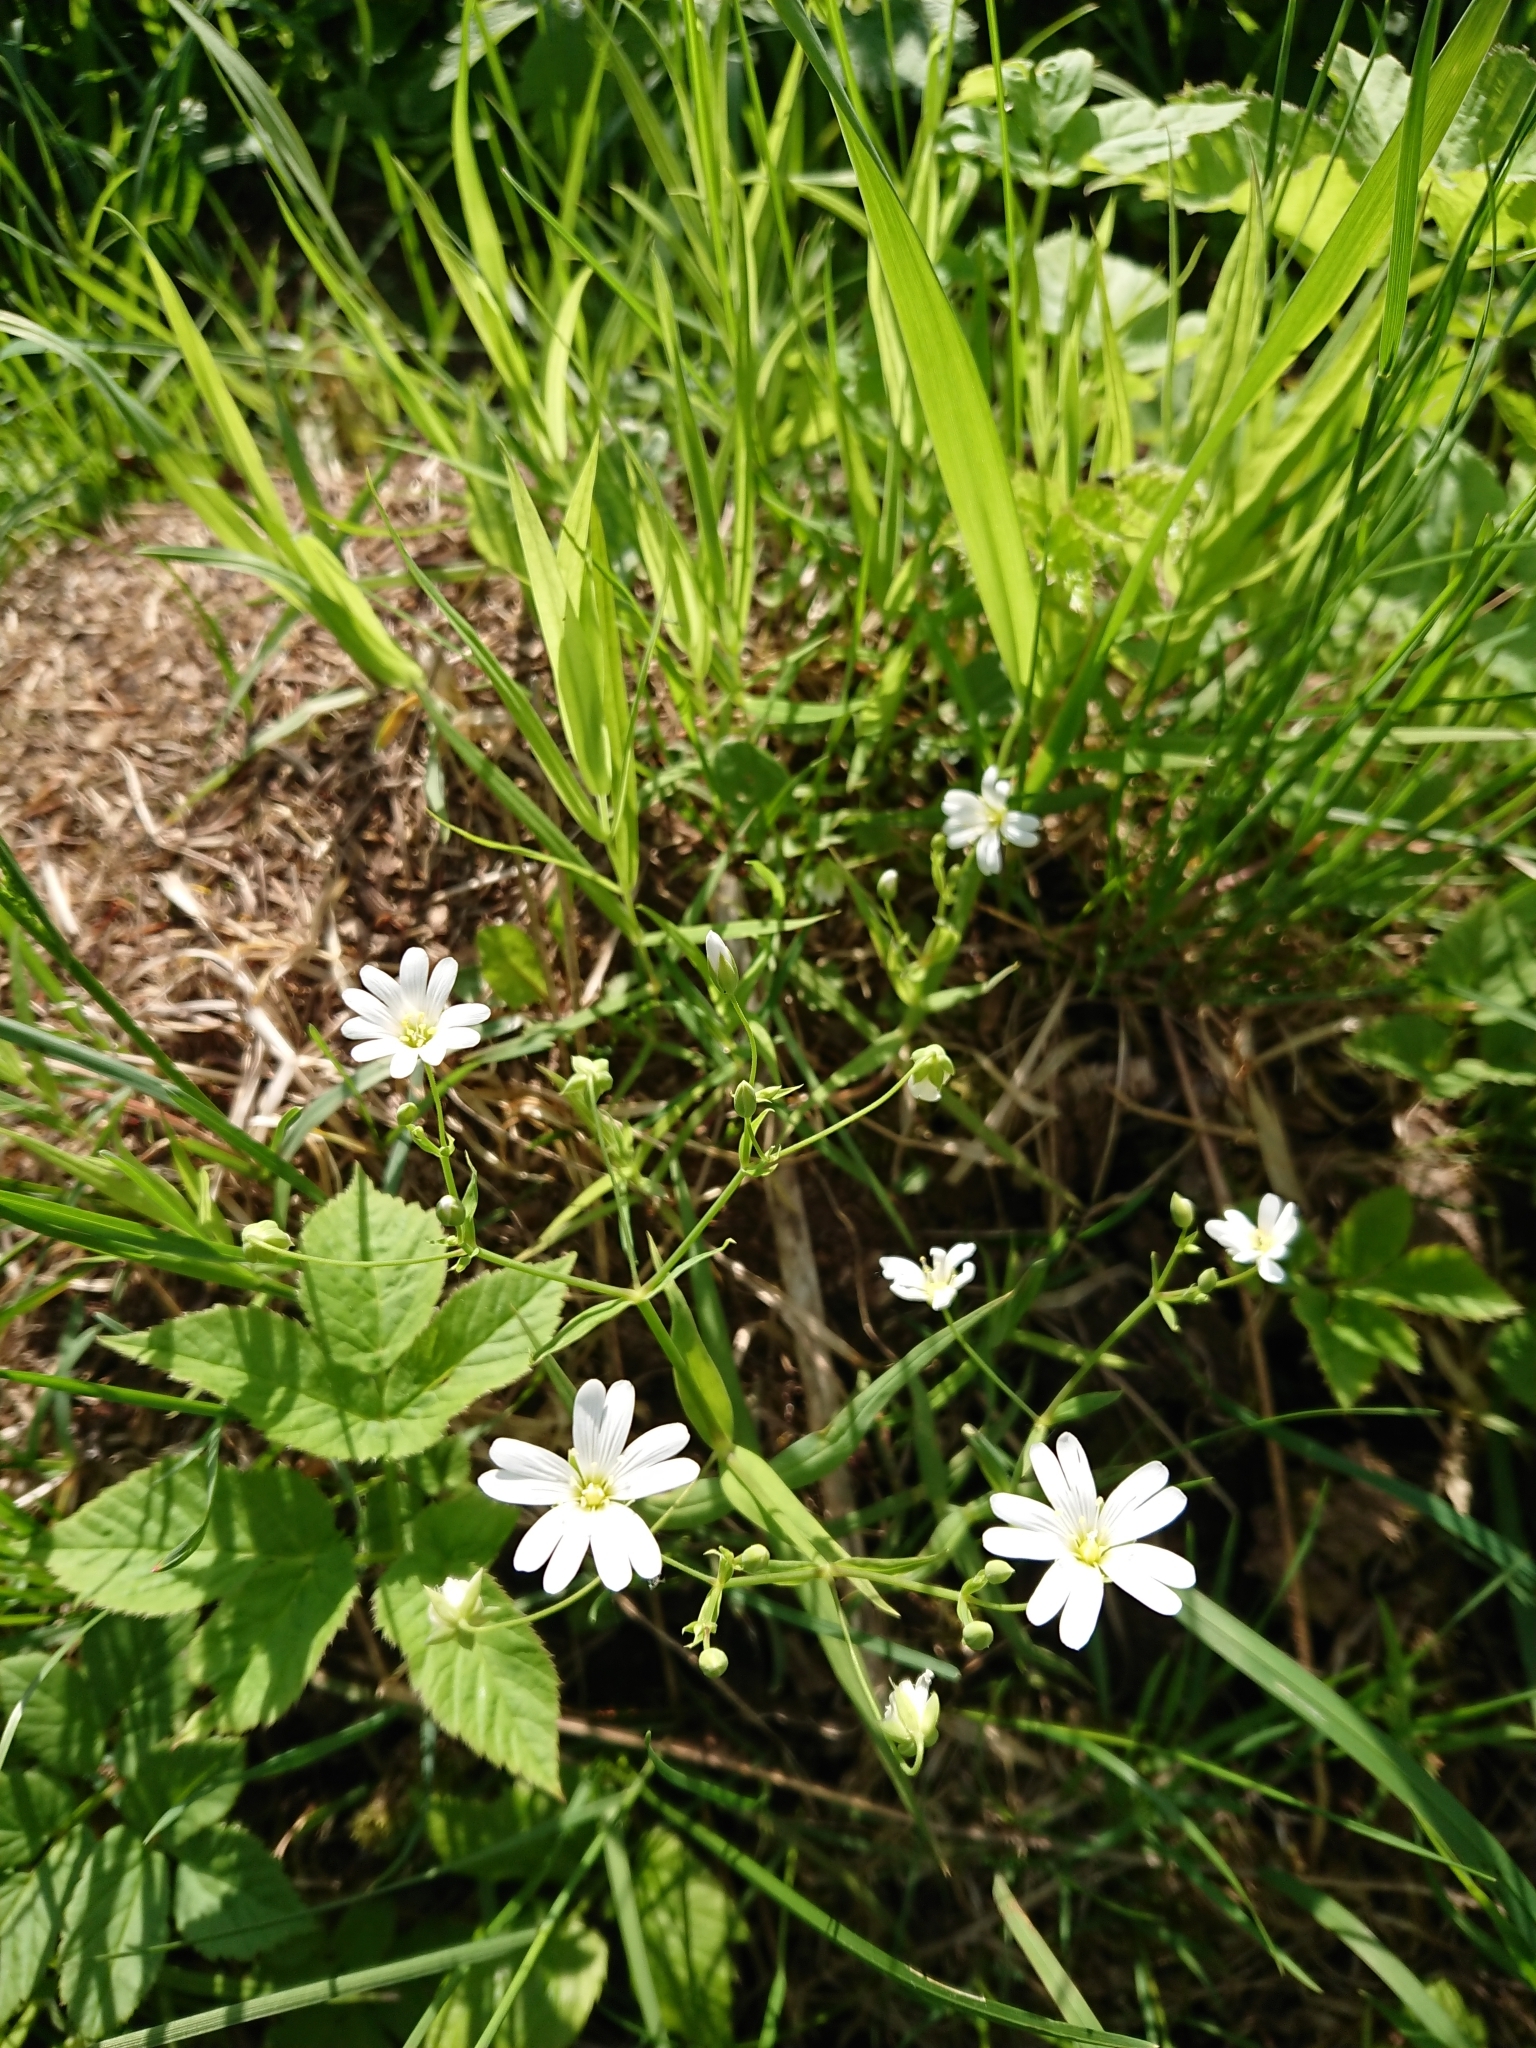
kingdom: Plantae
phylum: Tracheophyta
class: Magnoliopsida
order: Caryophyllales
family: Caryophyllaceae
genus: Rabelera
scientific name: Rabelera holostea
